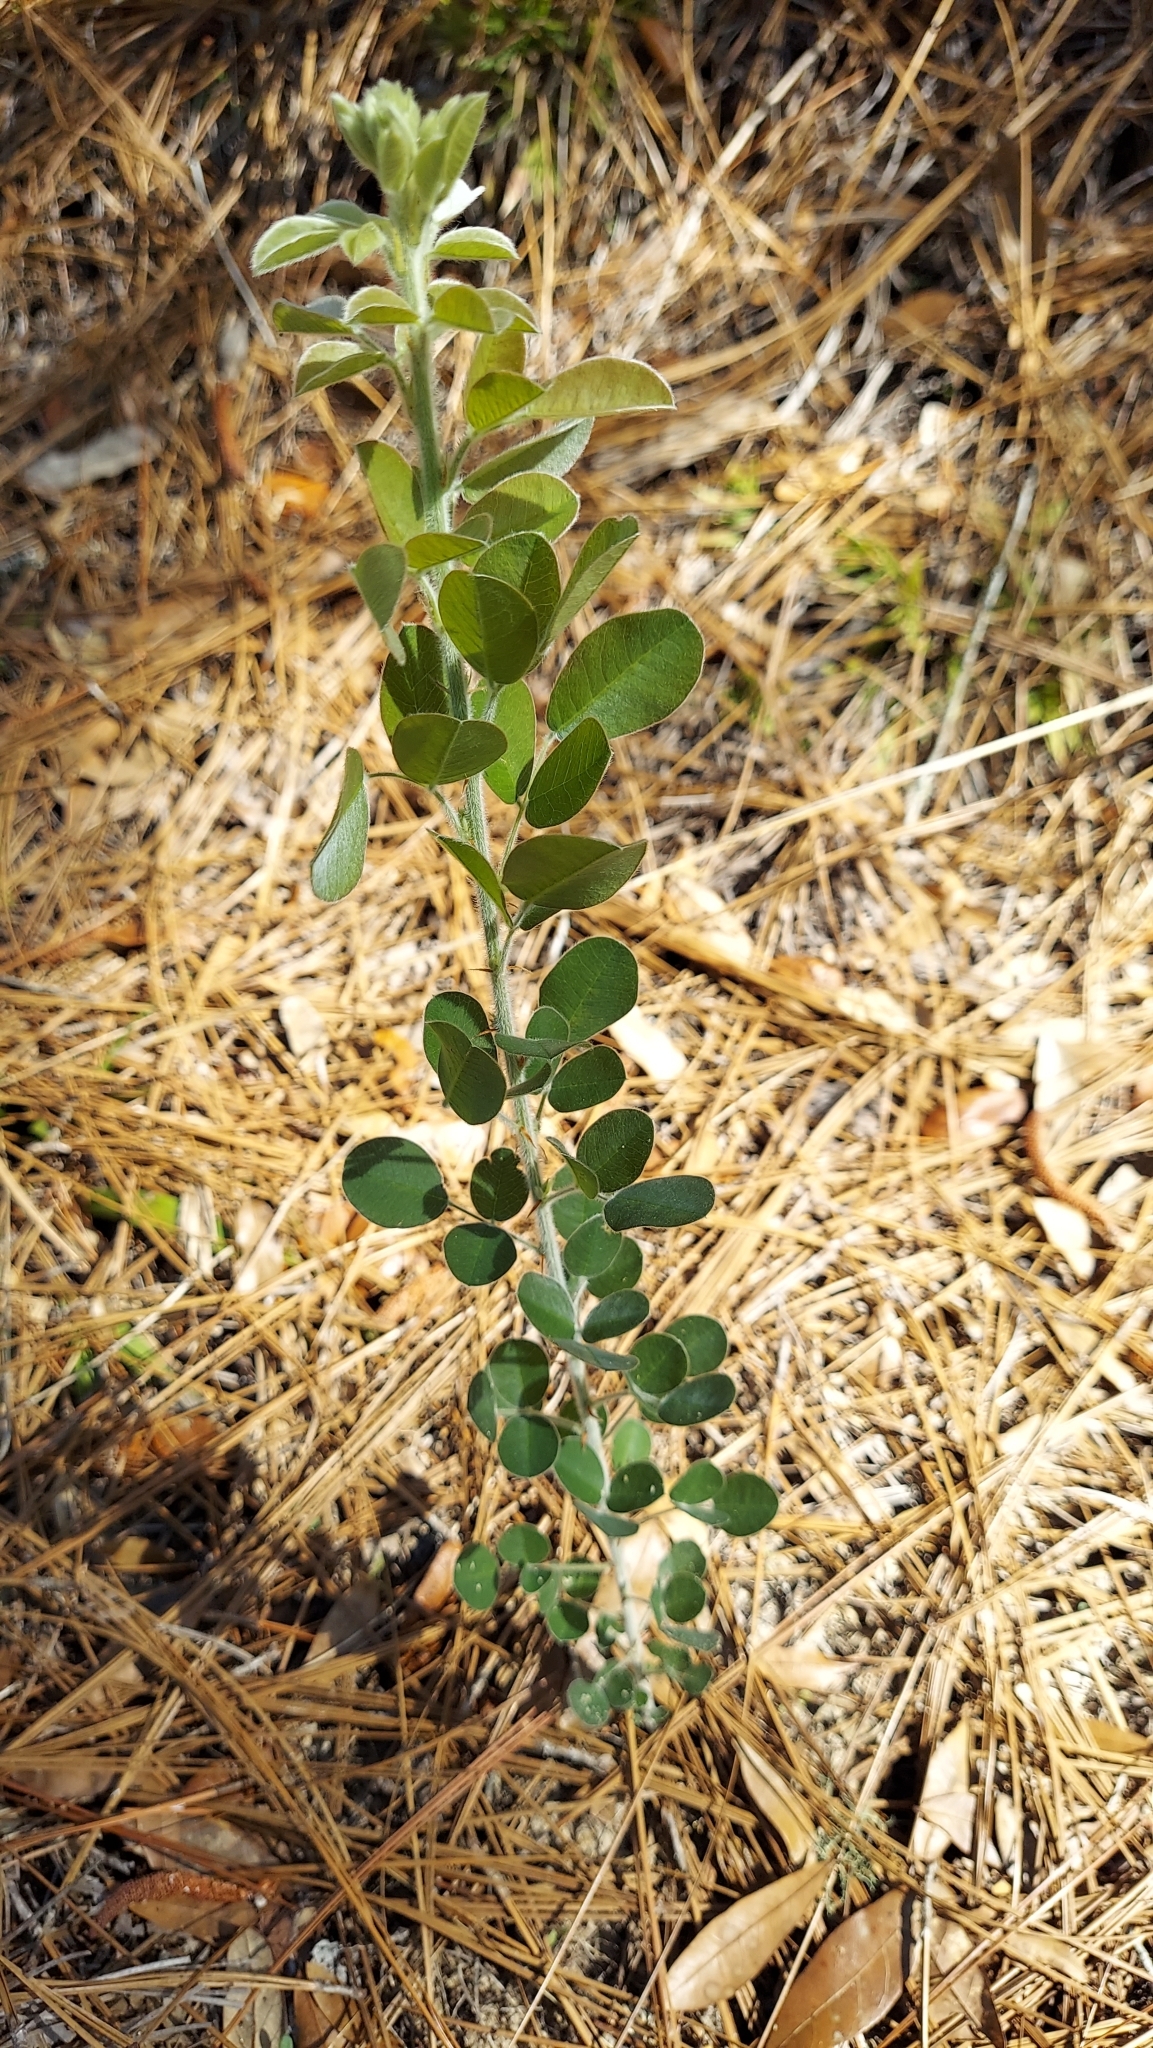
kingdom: Plantae
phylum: Tracheophyta
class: Magnoliopsida
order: Fabales
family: Fabaceae
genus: Lespedeza
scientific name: Lespedeza hirta
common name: Hairy lespedeza
